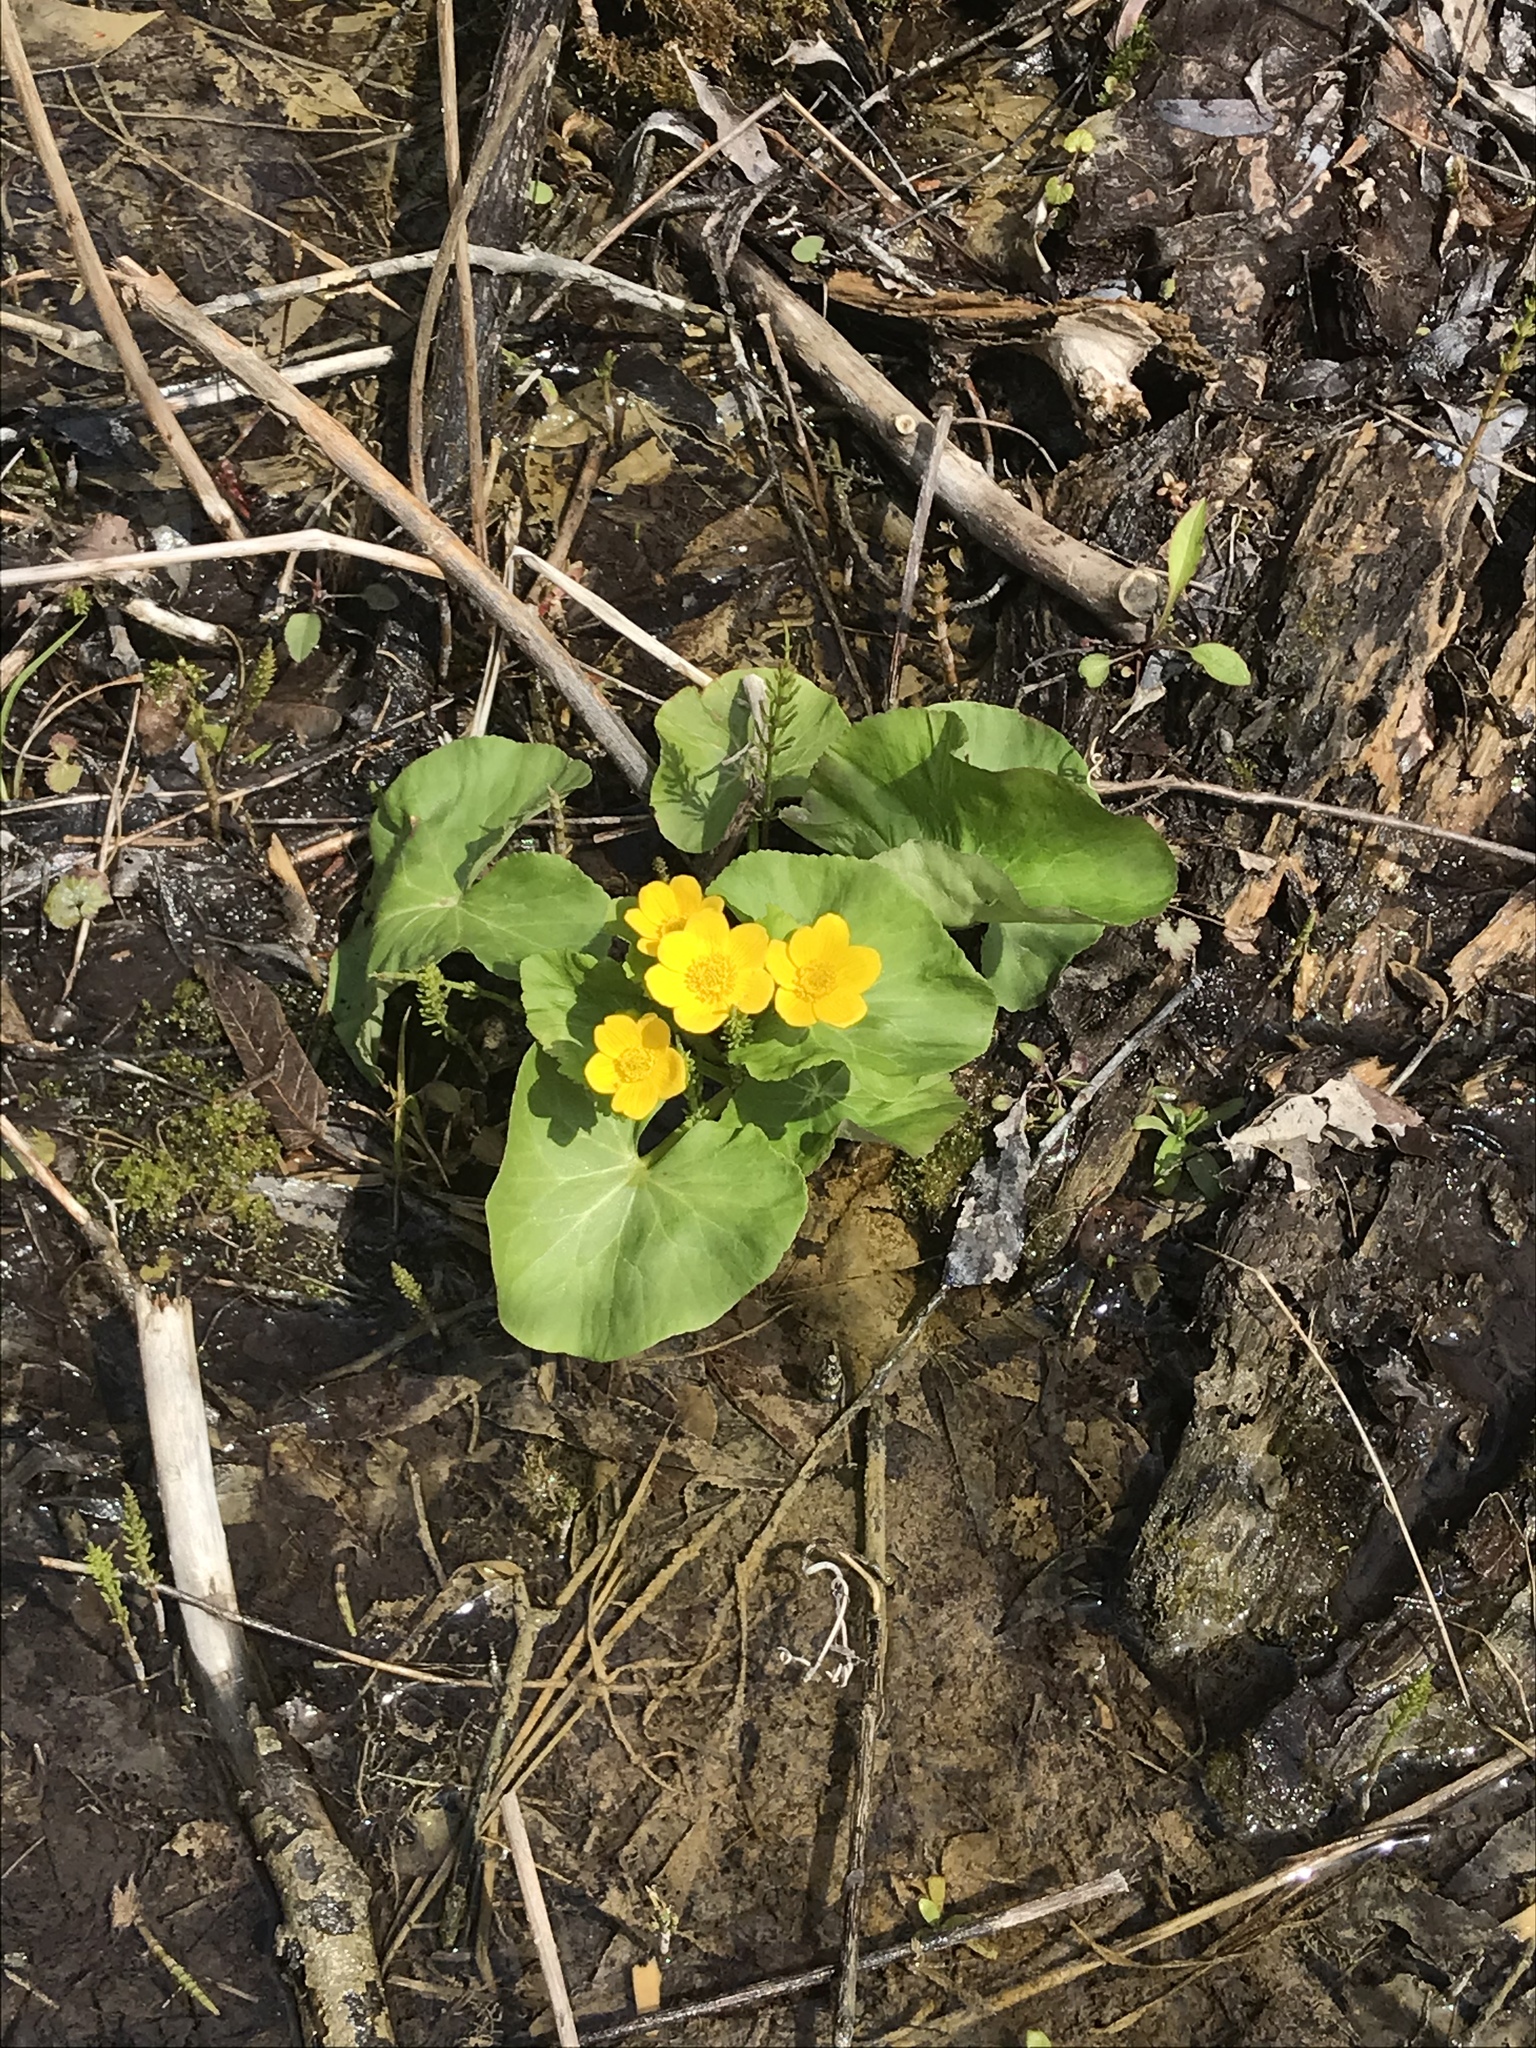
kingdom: Plantae
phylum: Tracheophyta
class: Magnoliopsida
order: Ranunculales
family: Ranunculaceae
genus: Caltha
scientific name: Caltha palustris
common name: Marsh marigold
